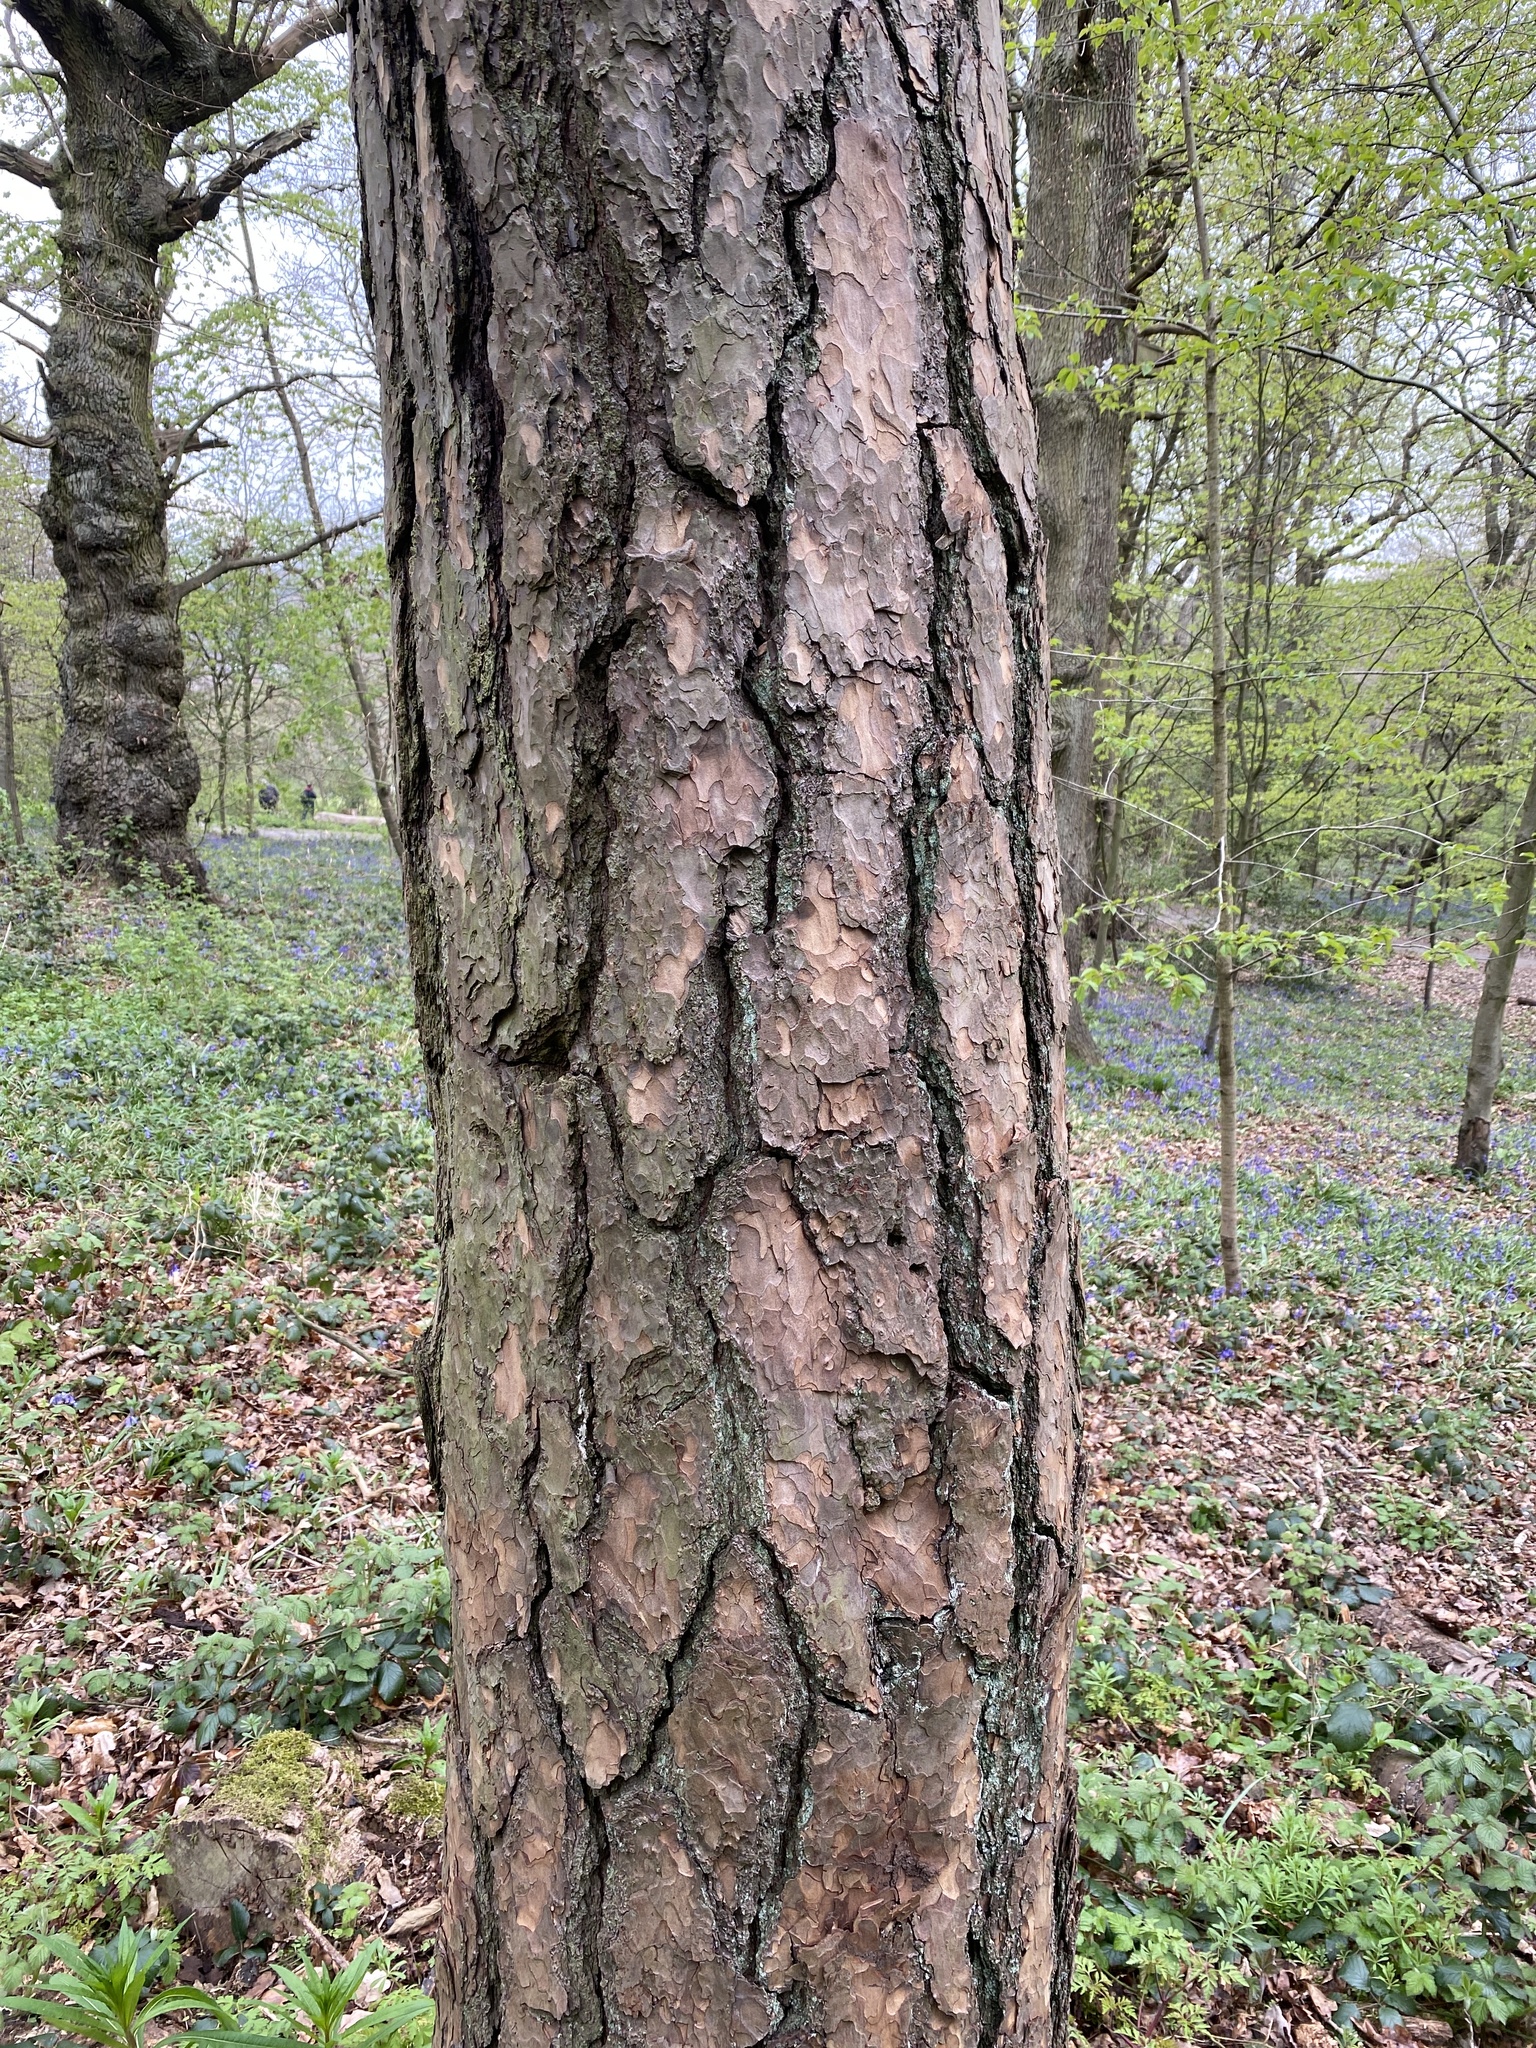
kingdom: Plantae
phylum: Tracheophyta
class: Pinopsida
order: Pinales
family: Pinaceae
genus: Pinus
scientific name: Pinus sylvestris
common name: Scots pine
